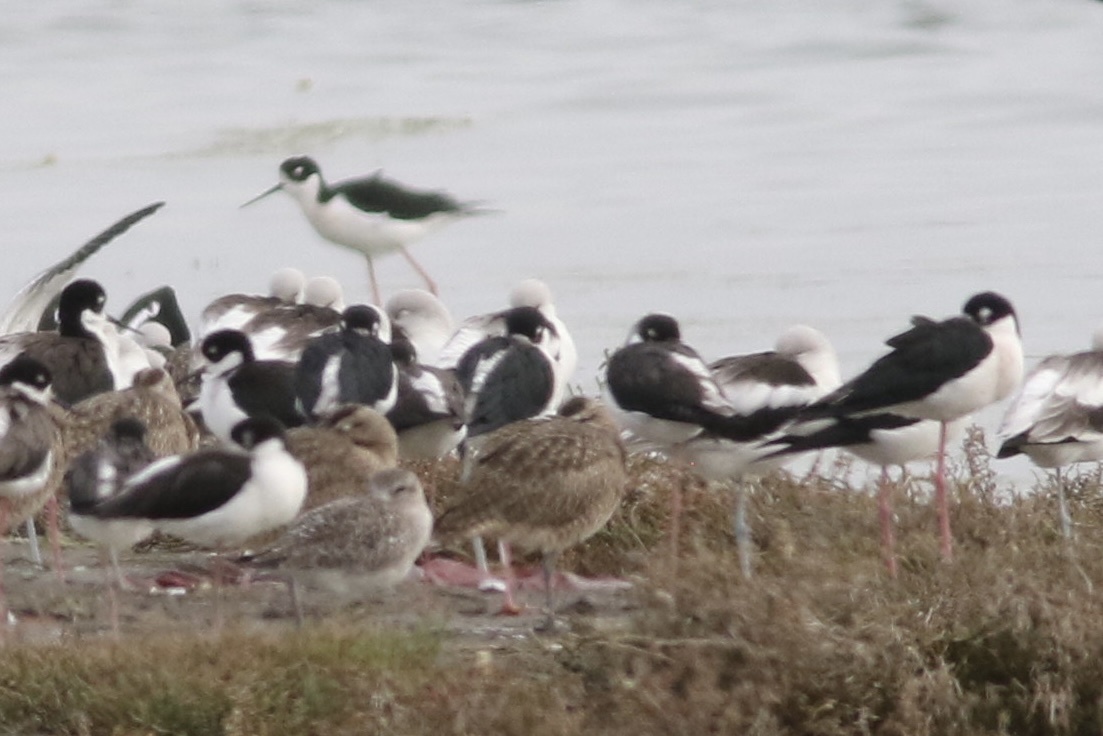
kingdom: Animalia
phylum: Chordata
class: Aves
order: Charadriiformes
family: Recurvirostridae
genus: Himantopus
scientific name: Himantopus mexicanus
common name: Black-necked stilt
